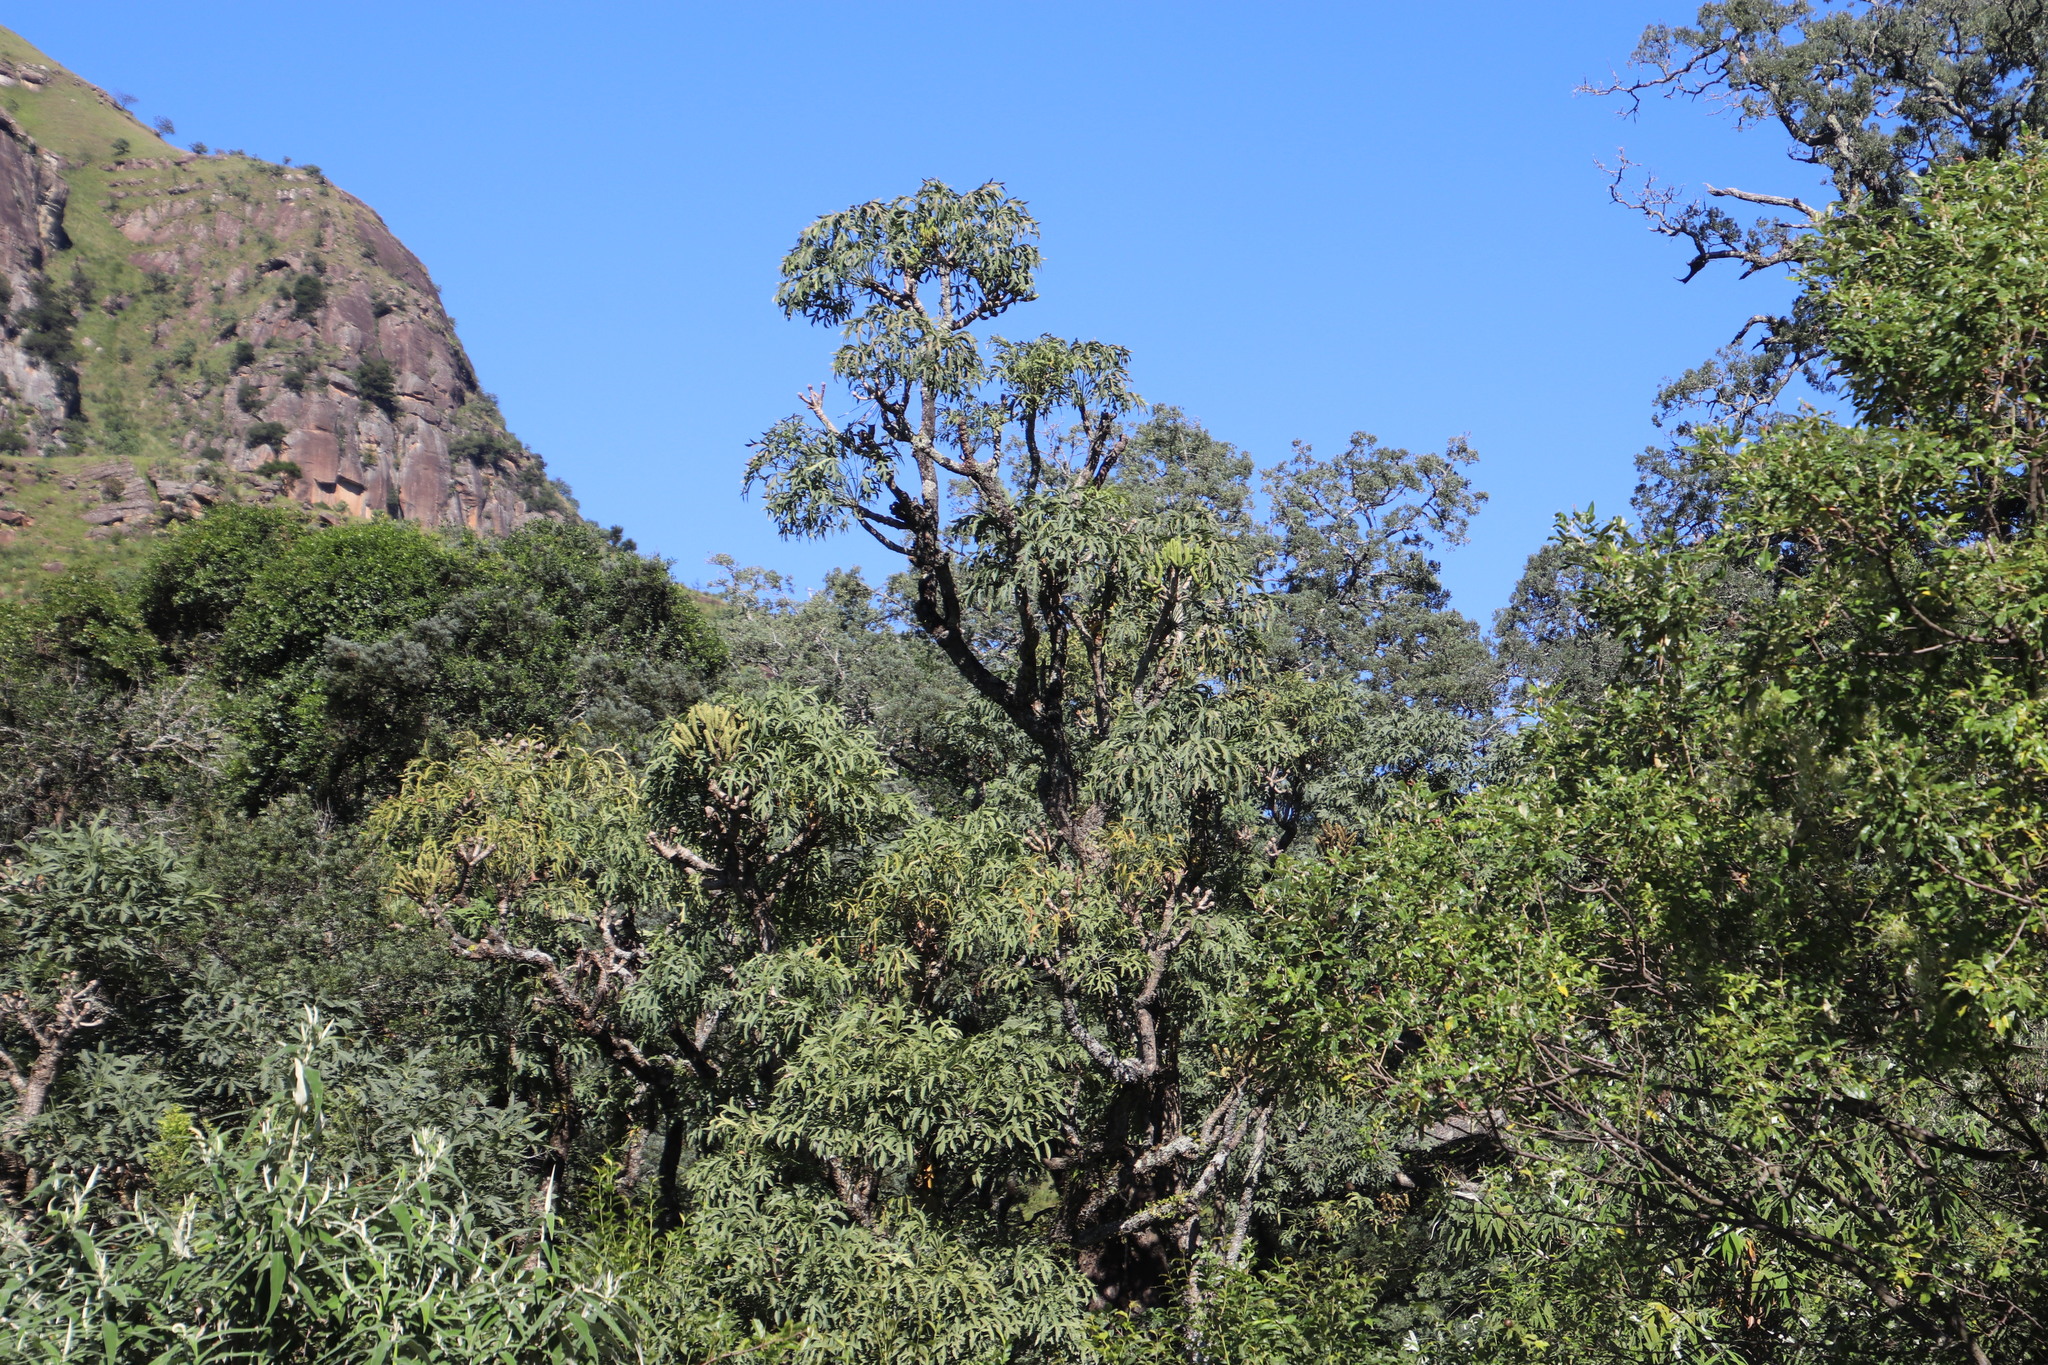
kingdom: Plantae
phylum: Tracheophyta
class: Magnoliopsida
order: Apiales
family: Araliaceae
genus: Cussonia
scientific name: Cussonia spicata
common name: Common cabbagetree
